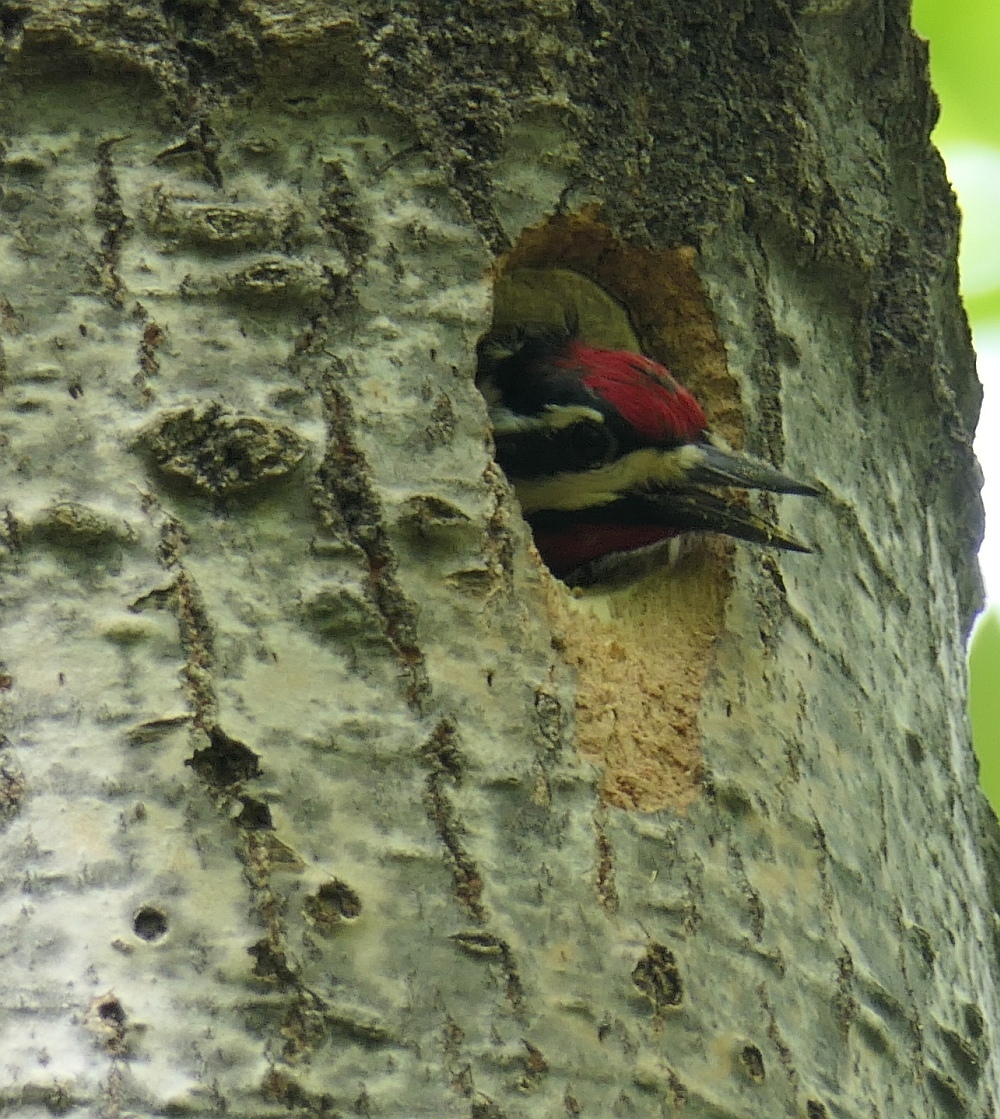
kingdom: Animalia
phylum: Chordata
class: Aves
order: Piciformes
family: Picidae
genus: Sphyrapicus
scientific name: Sphyrapicus varius
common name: Yellow-bellied sapsucker
